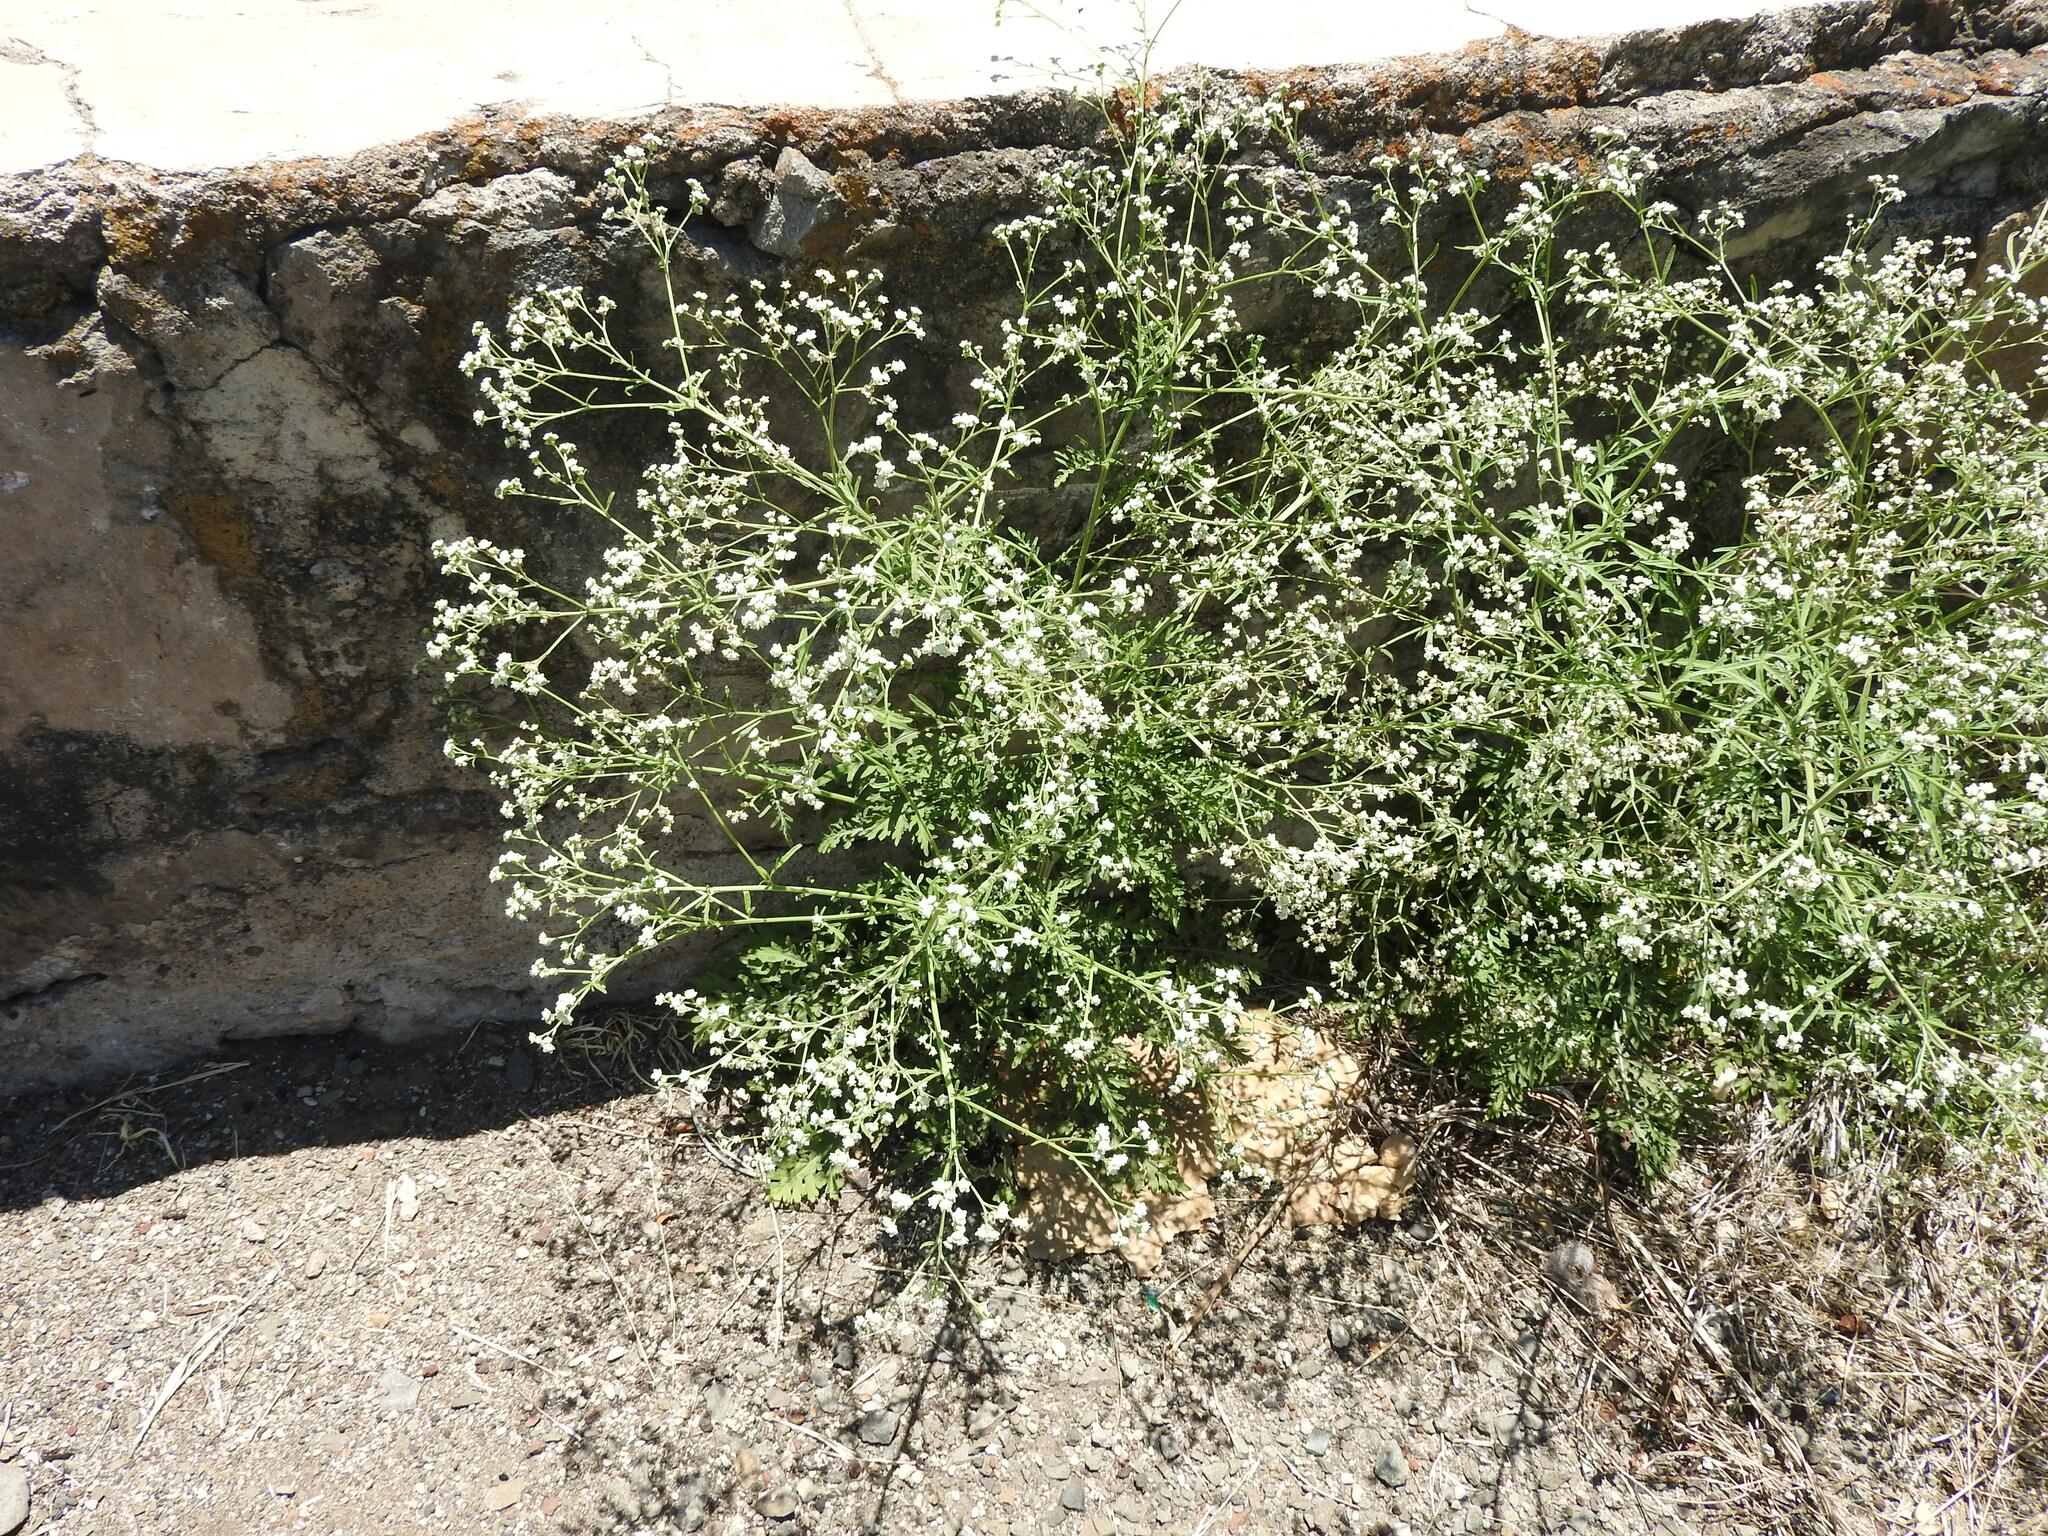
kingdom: Plantae
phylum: Tracheophyta
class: Magnoliopsida
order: Asterales
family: Asteraceae
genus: Parthenium
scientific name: Parthenium hysterophorus
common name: Santa maria feverfew
